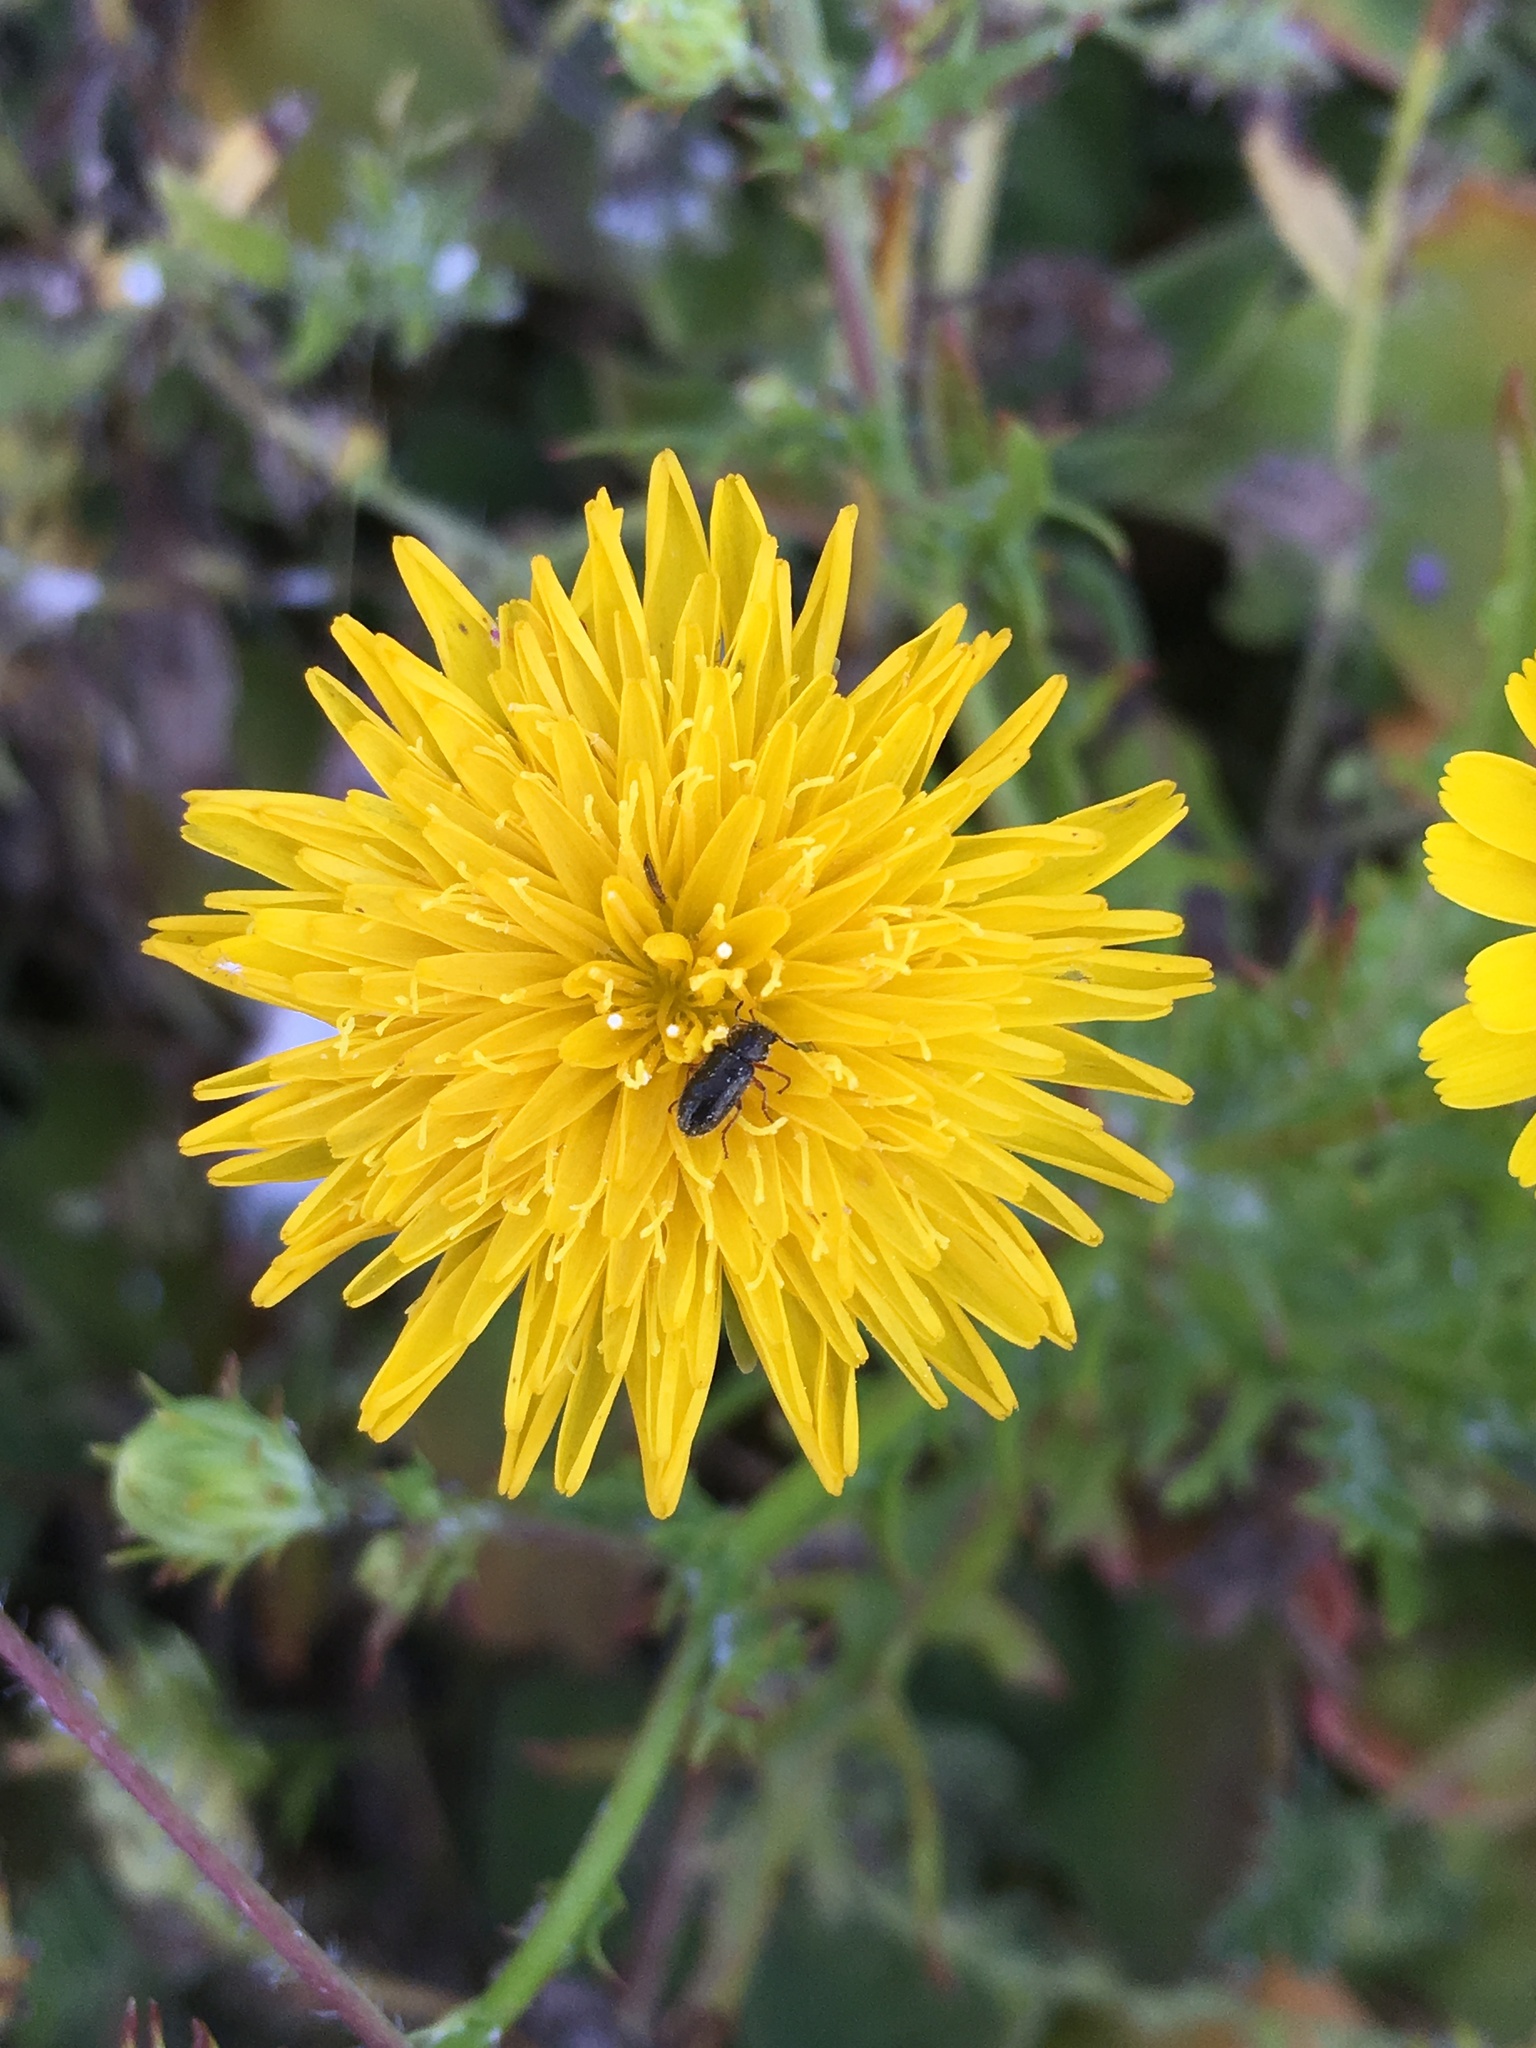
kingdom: Plantae
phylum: Tracheophyta
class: Magnoliopsida
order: Asterales
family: Asteraceae
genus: Malacothrix
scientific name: Malacothrix foliosa
